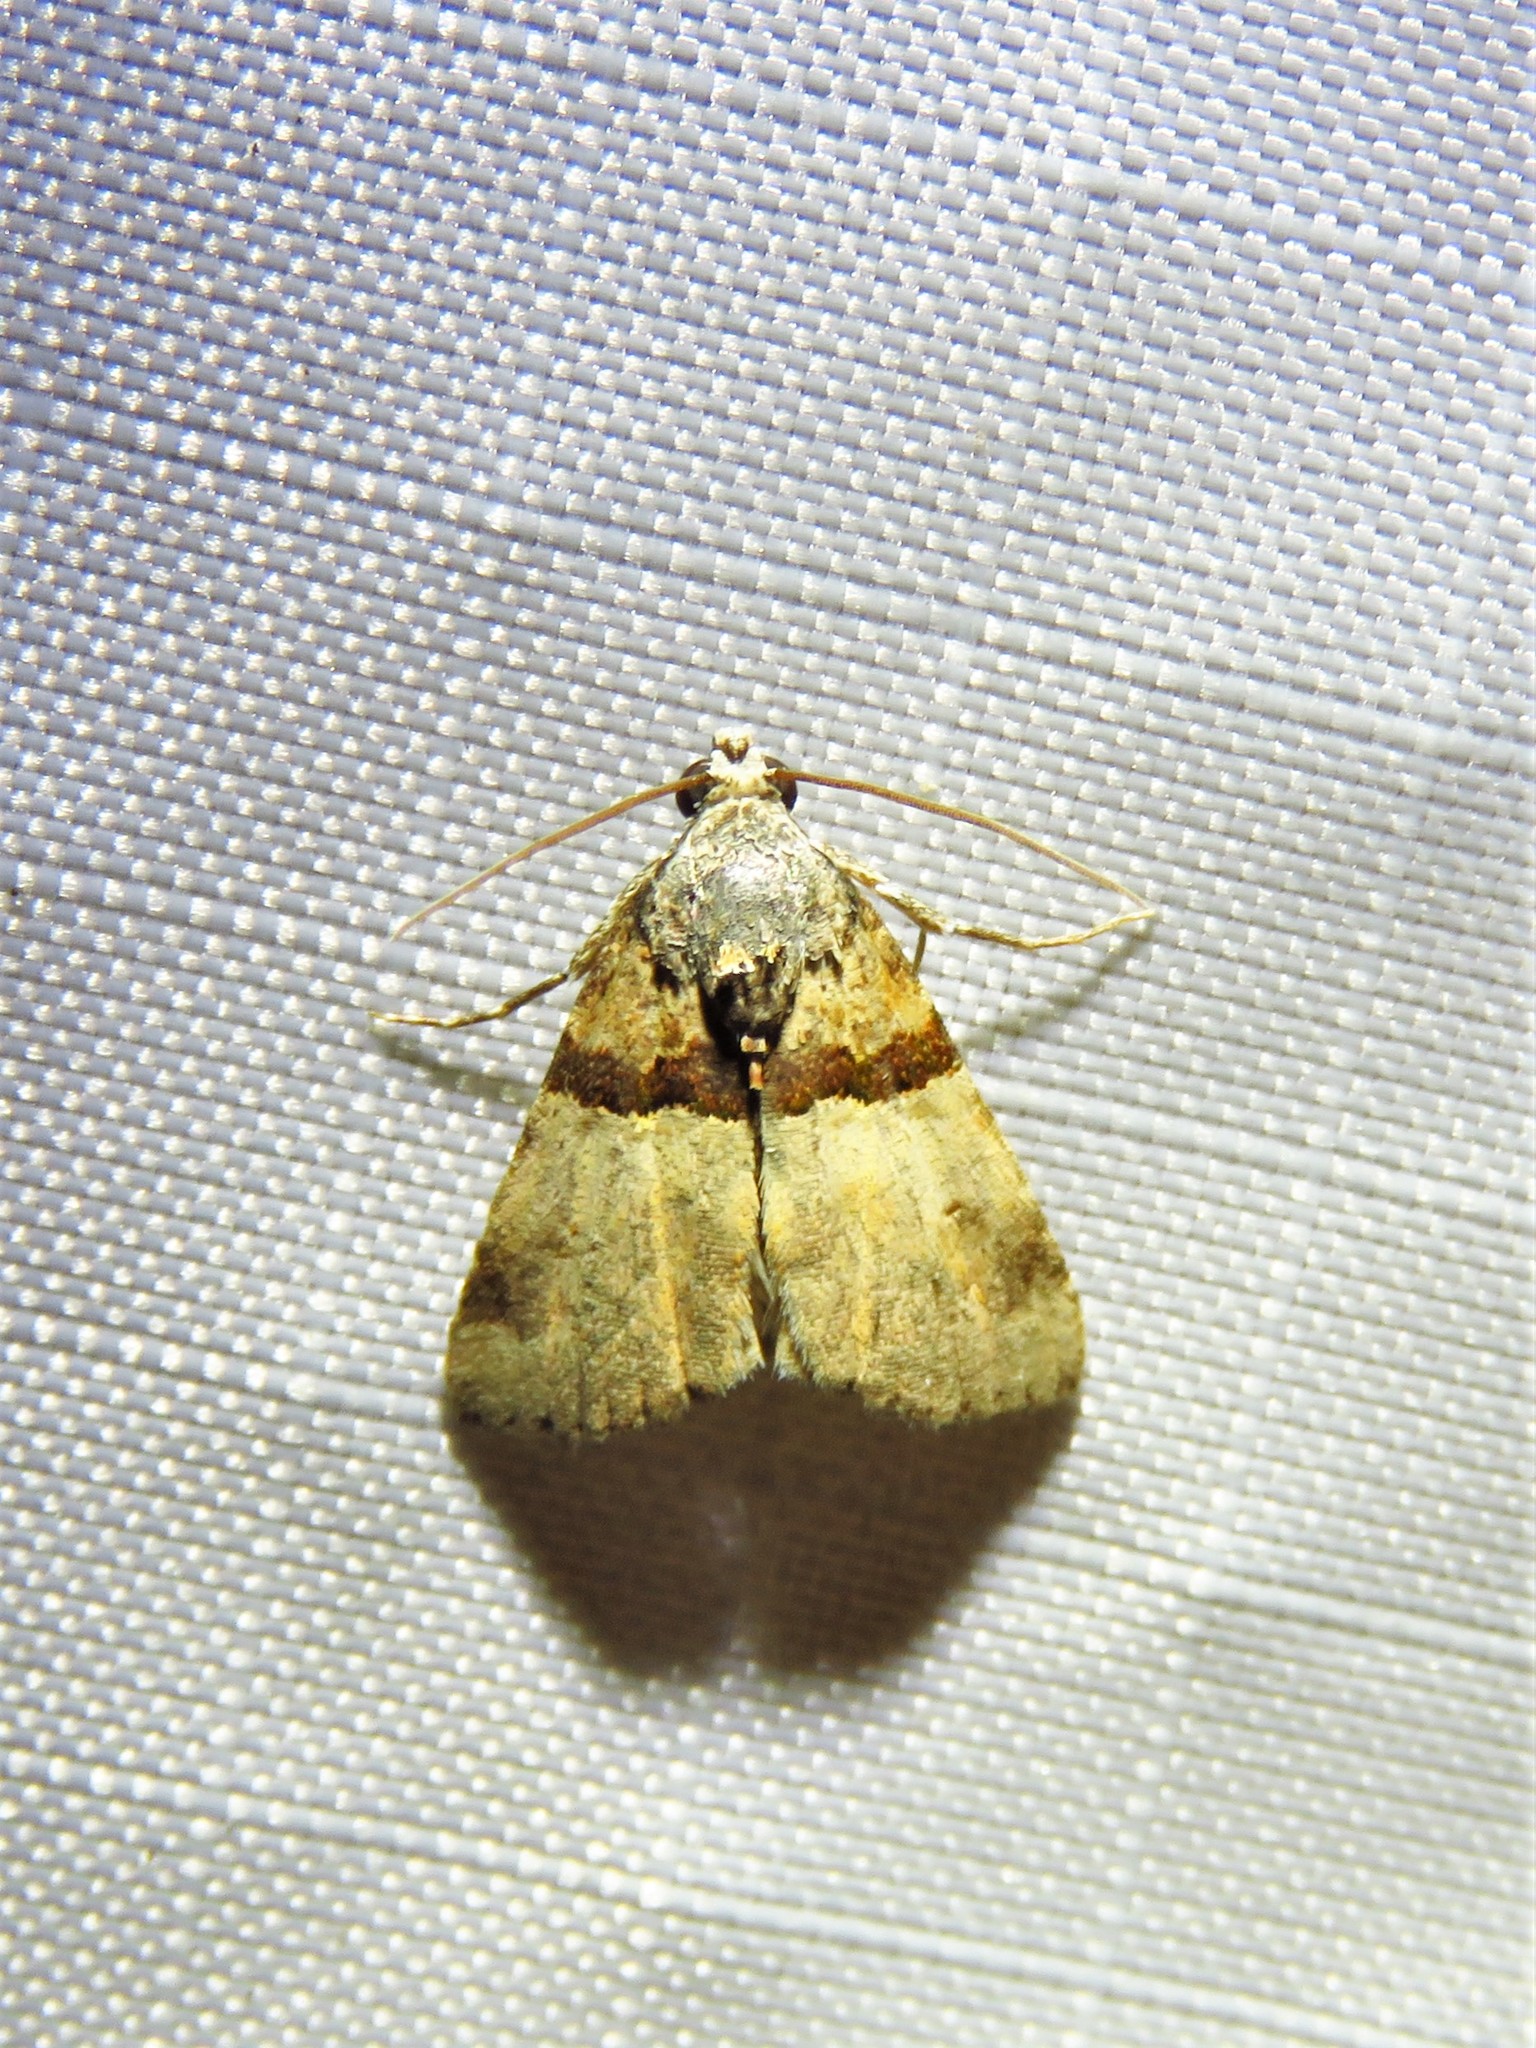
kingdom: Animalia
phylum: Arthropoda
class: Insecta
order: Lepidoptera
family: Noctuidae
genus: Cobubatha
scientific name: Cobubatha dividua
